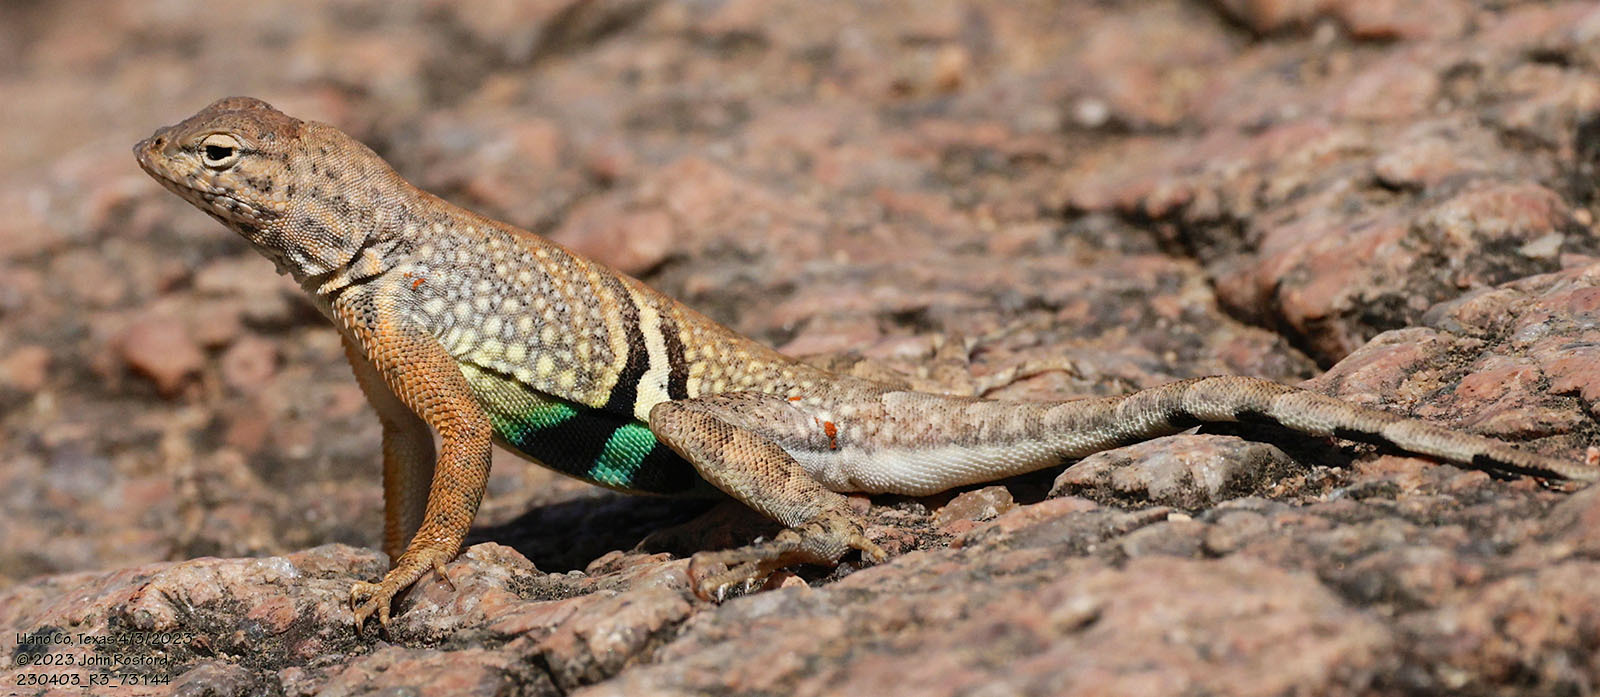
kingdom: Animalia
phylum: Chordata
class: Squamata
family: Phrynosomatidae
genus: Cophosaurus
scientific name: Cophosaurus texanus
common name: Greater earless lizard
